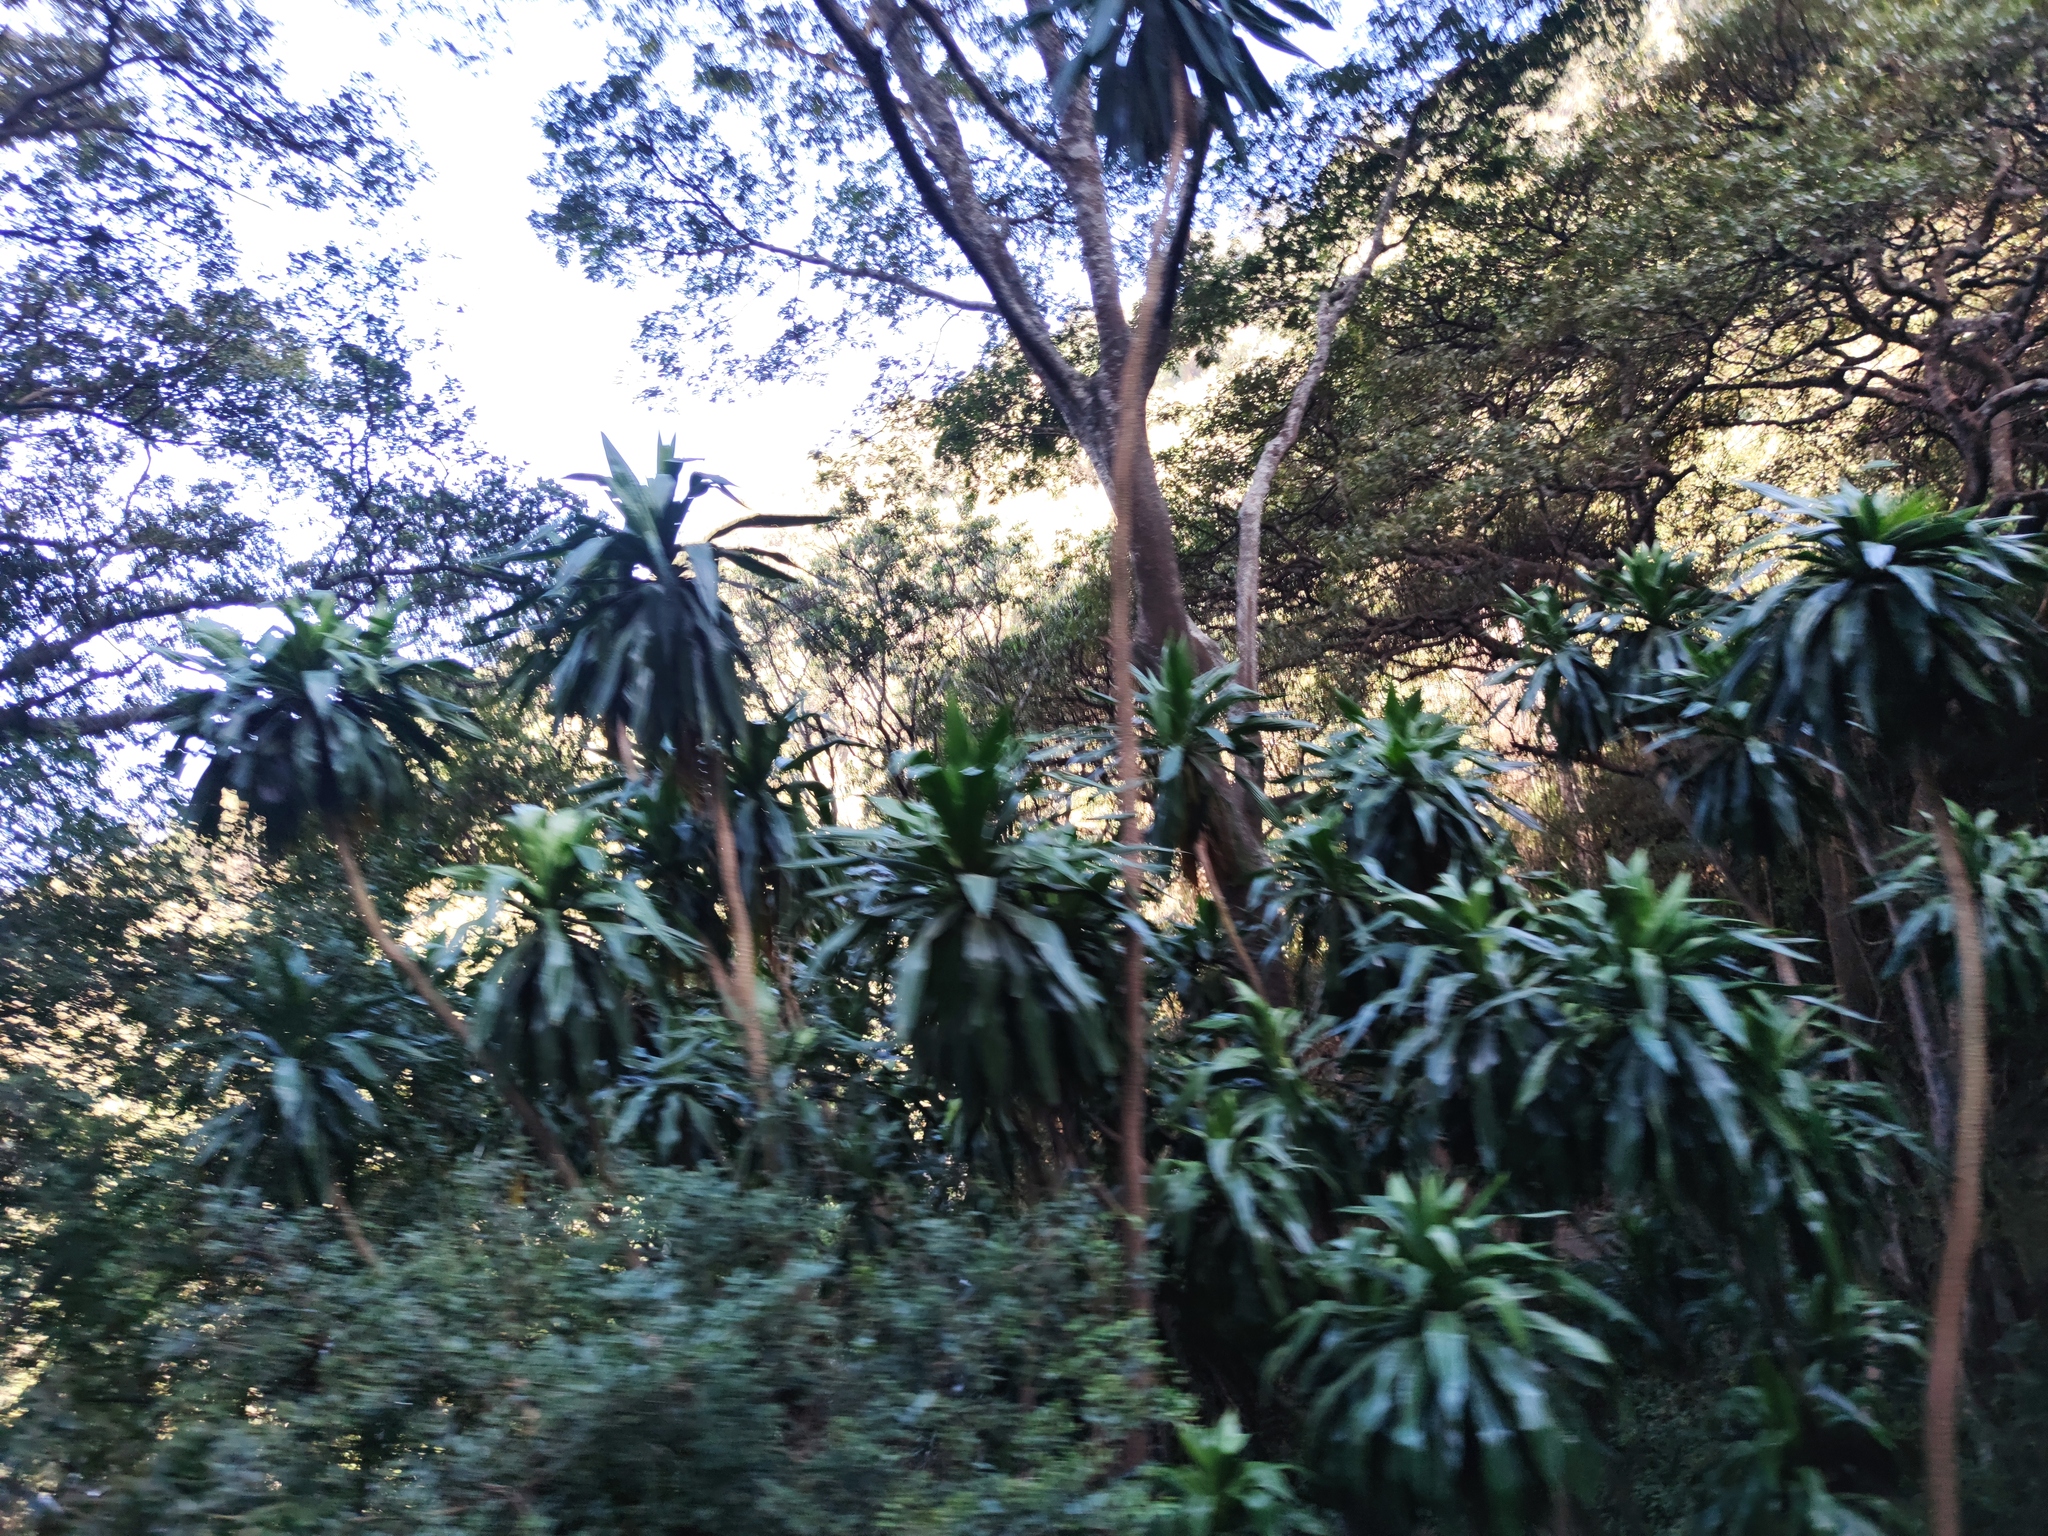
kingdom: Plantae
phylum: Tracheophyta
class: Liliopsida
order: Asparagales
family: Asparagaceae
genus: Dracaena
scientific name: Dracaena fragrans
